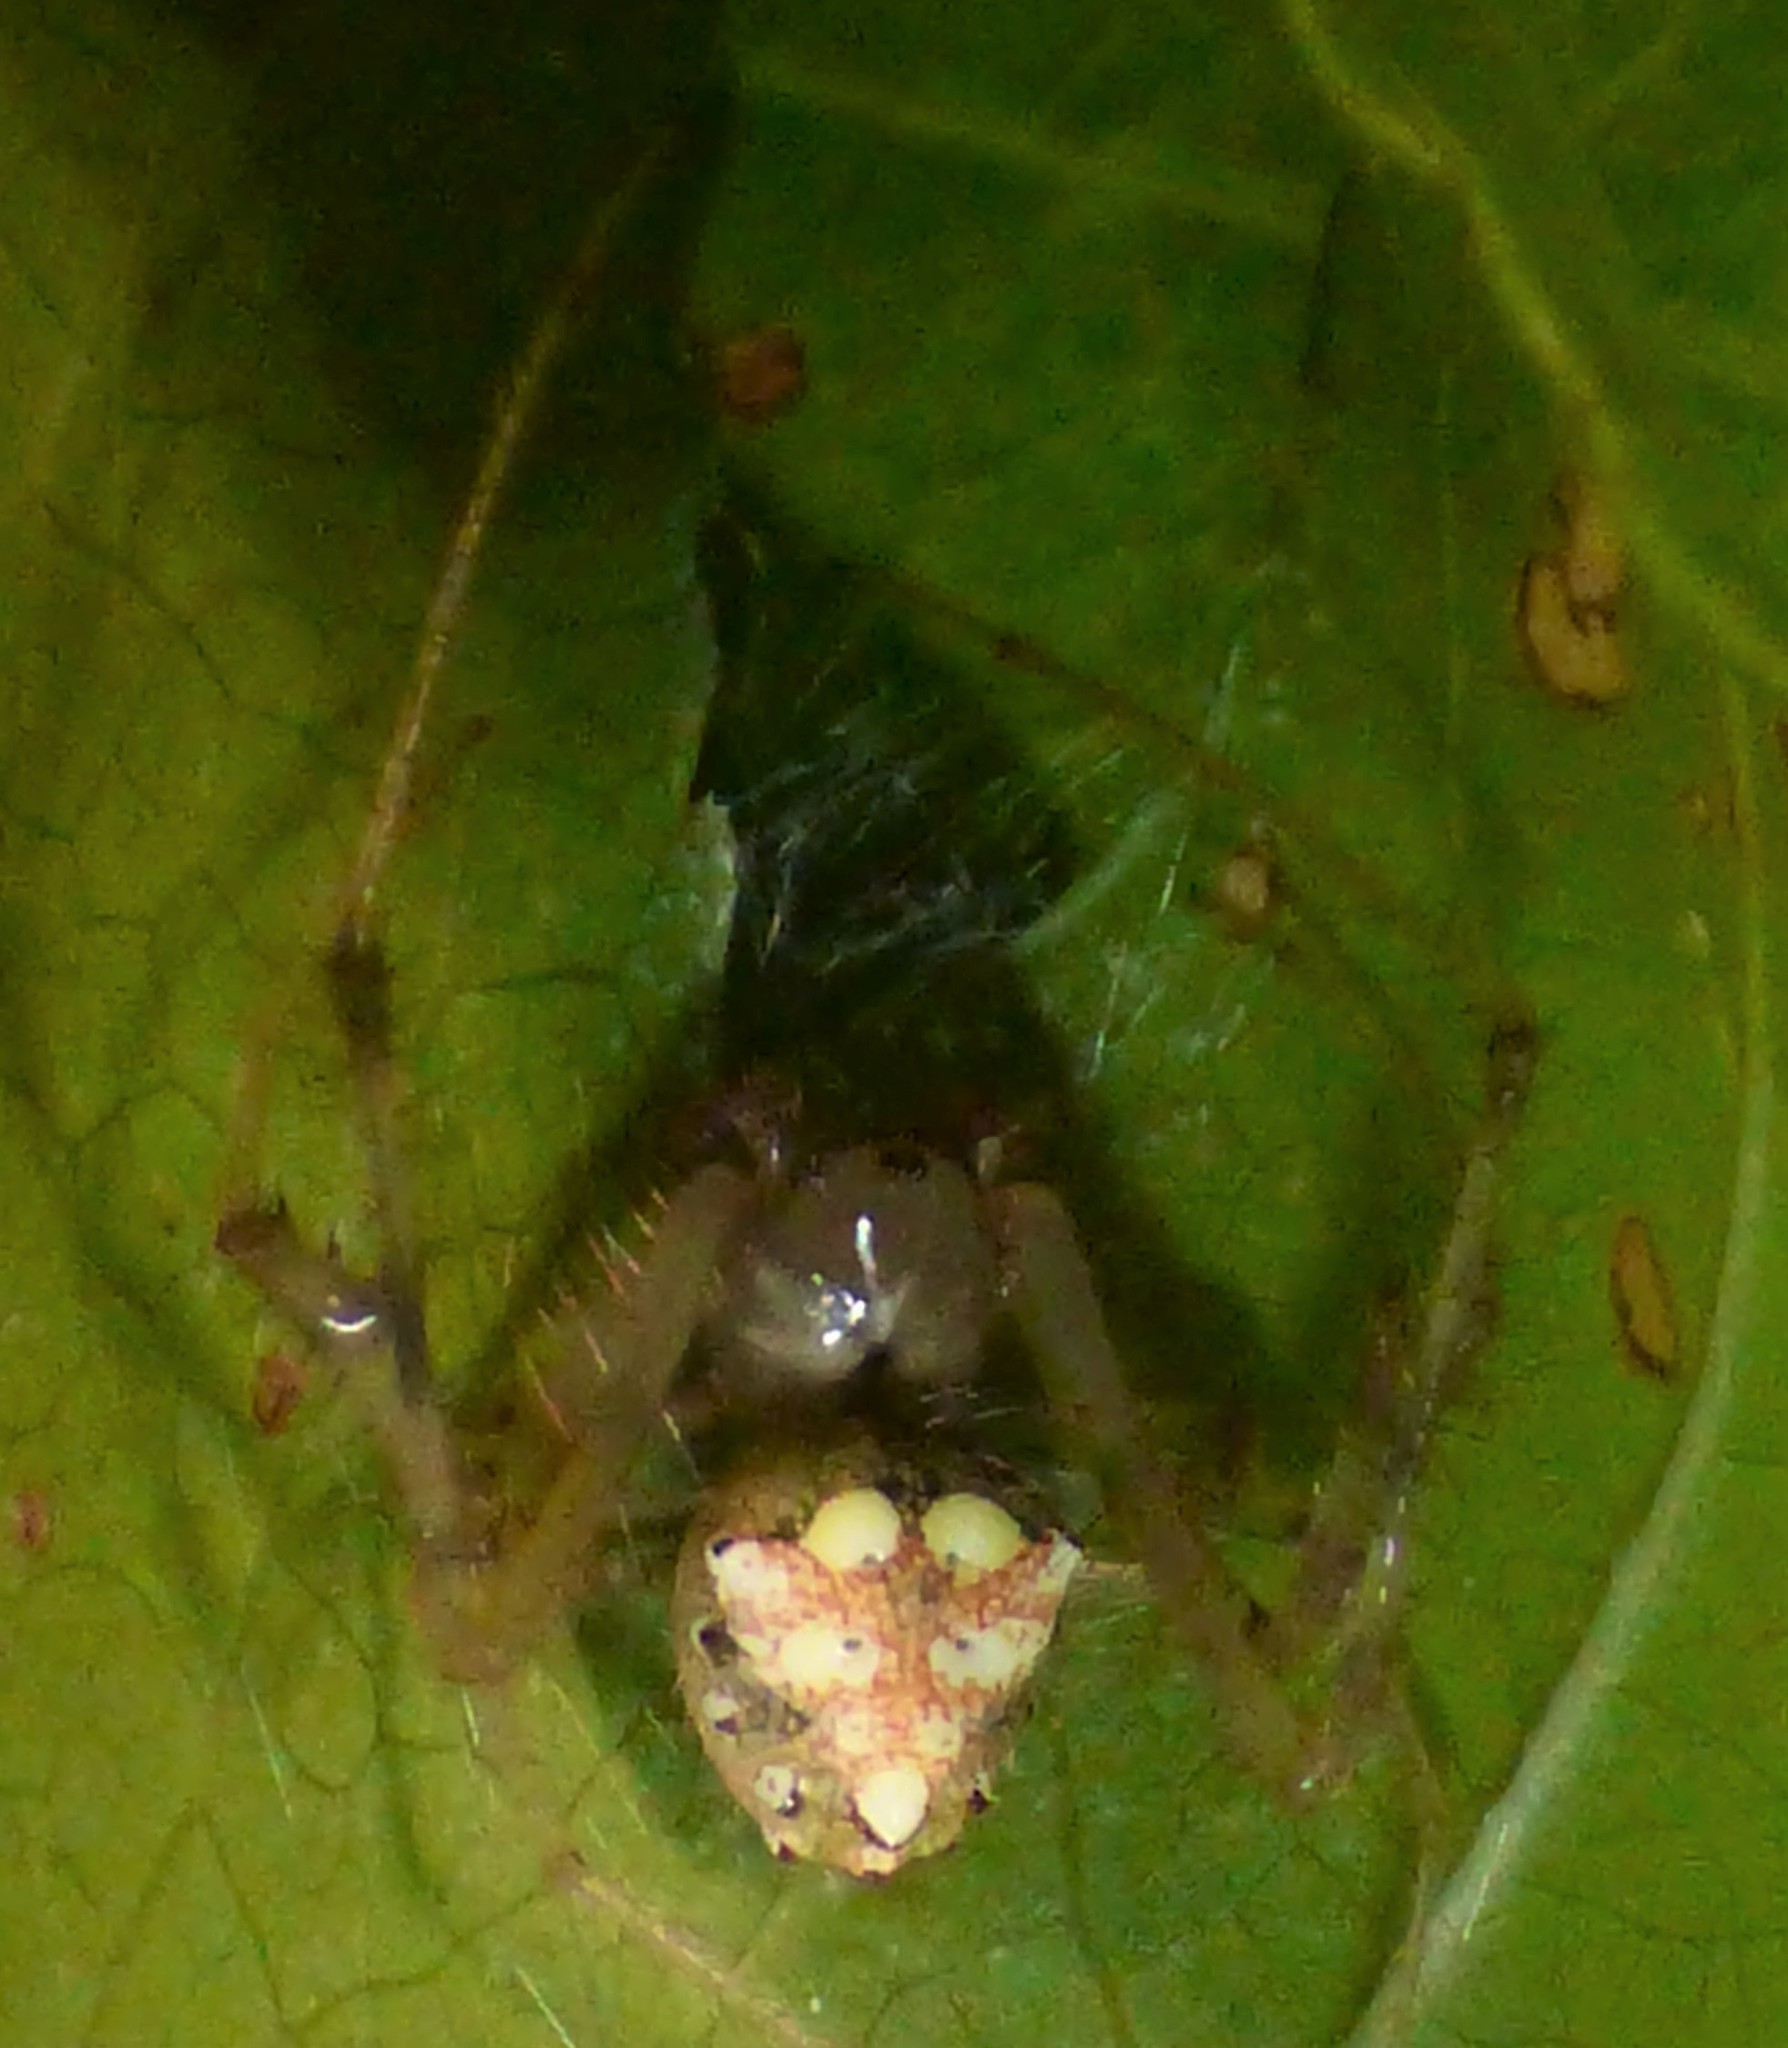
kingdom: Animalia
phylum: Arthropoda
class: Arachnida
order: Araneae
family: Araneidae
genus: Verrucosa
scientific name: Verrucosa arenata
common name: Orb weavers
